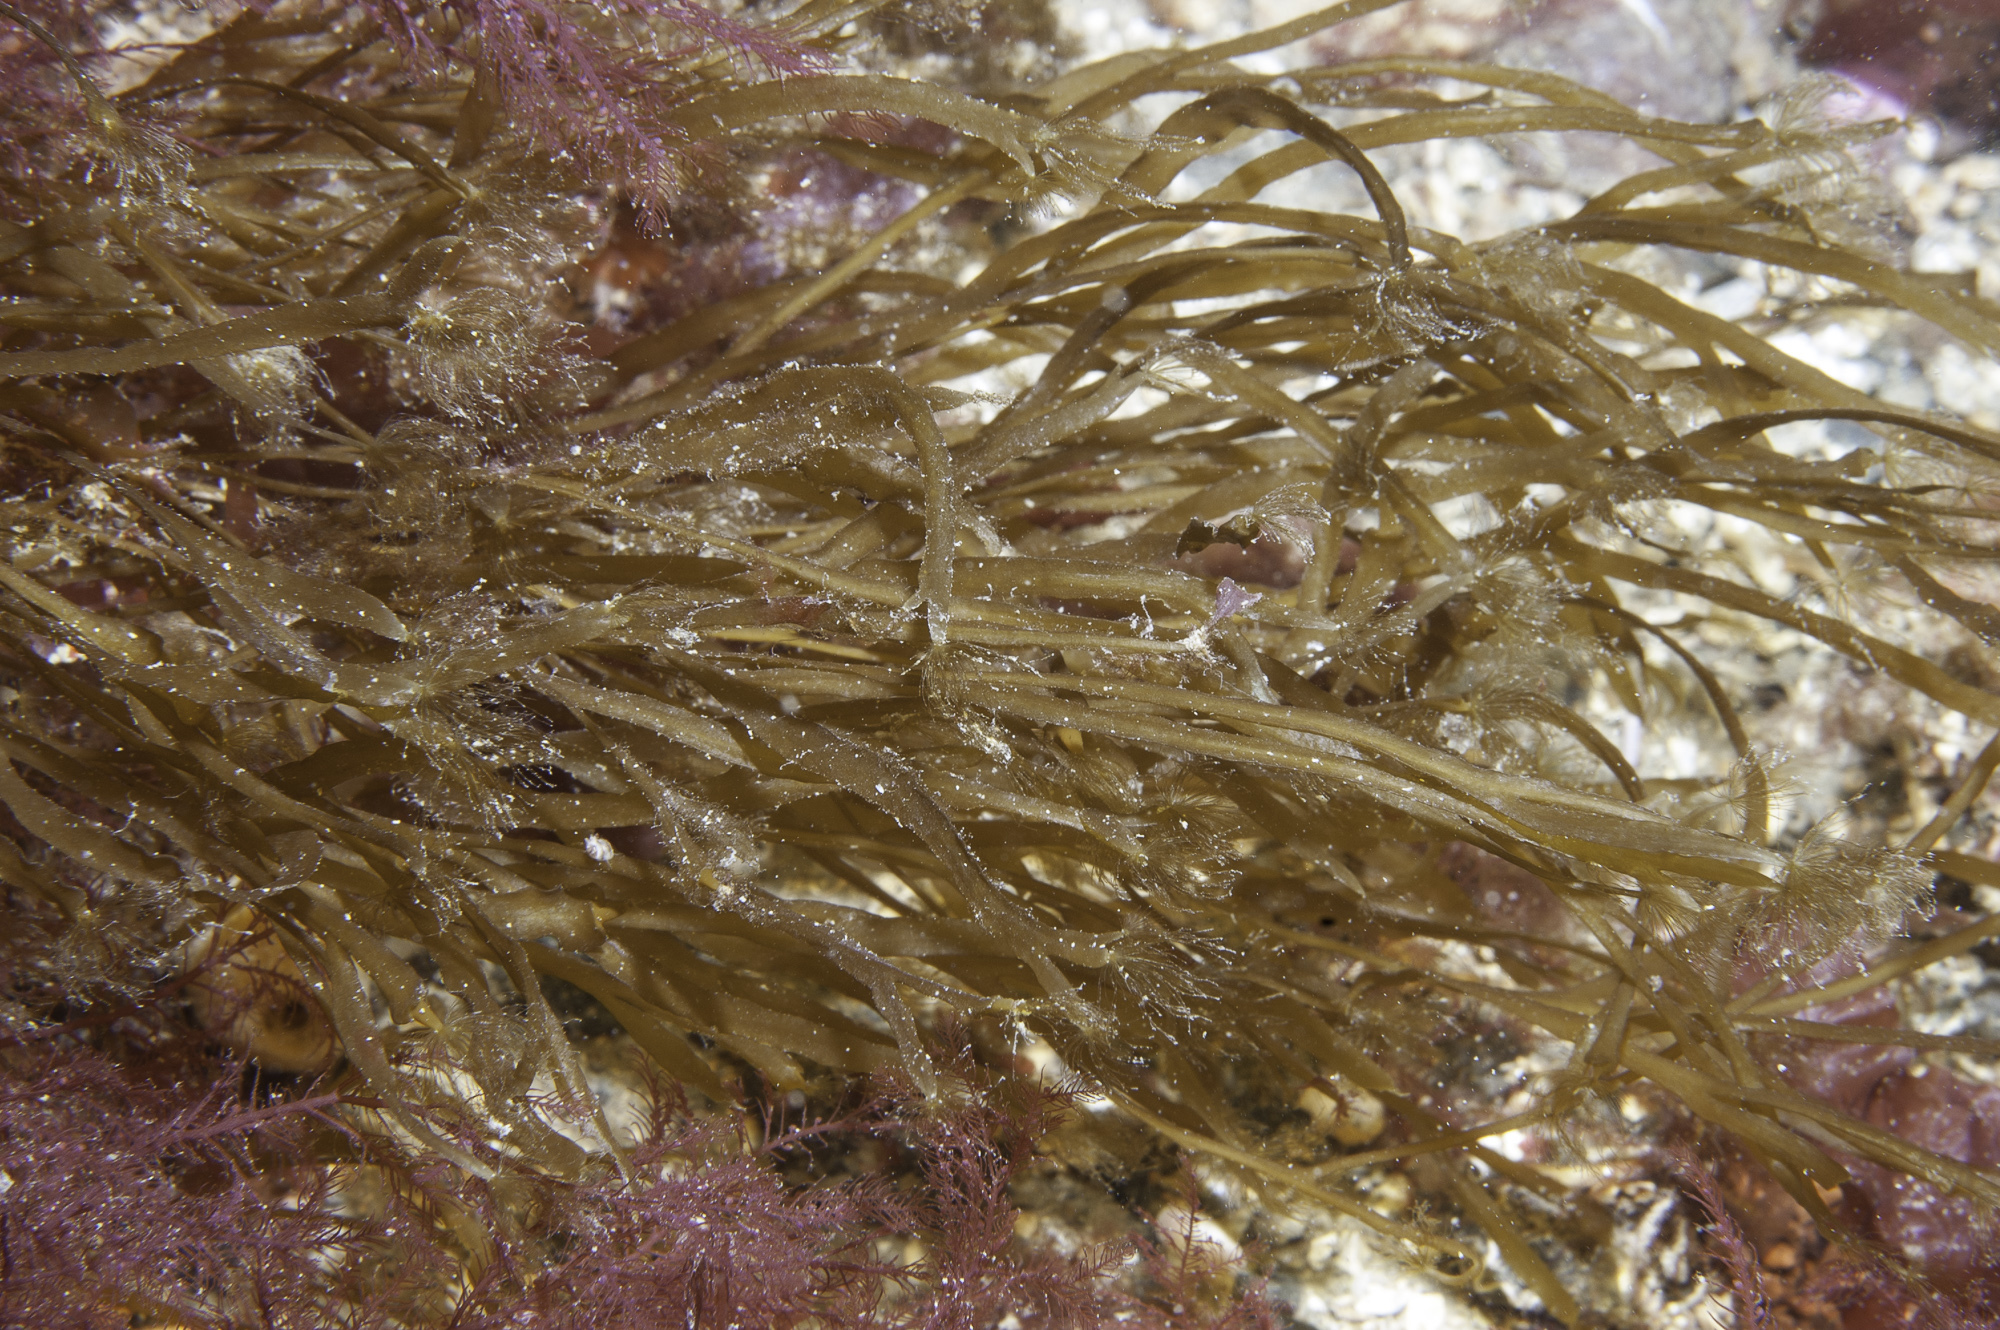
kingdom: Chromista
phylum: Ochrophyta
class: Phaeophyceae
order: Sporochnales
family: Sporochnaceae
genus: Carpomitra
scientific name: Carpomitra costata
